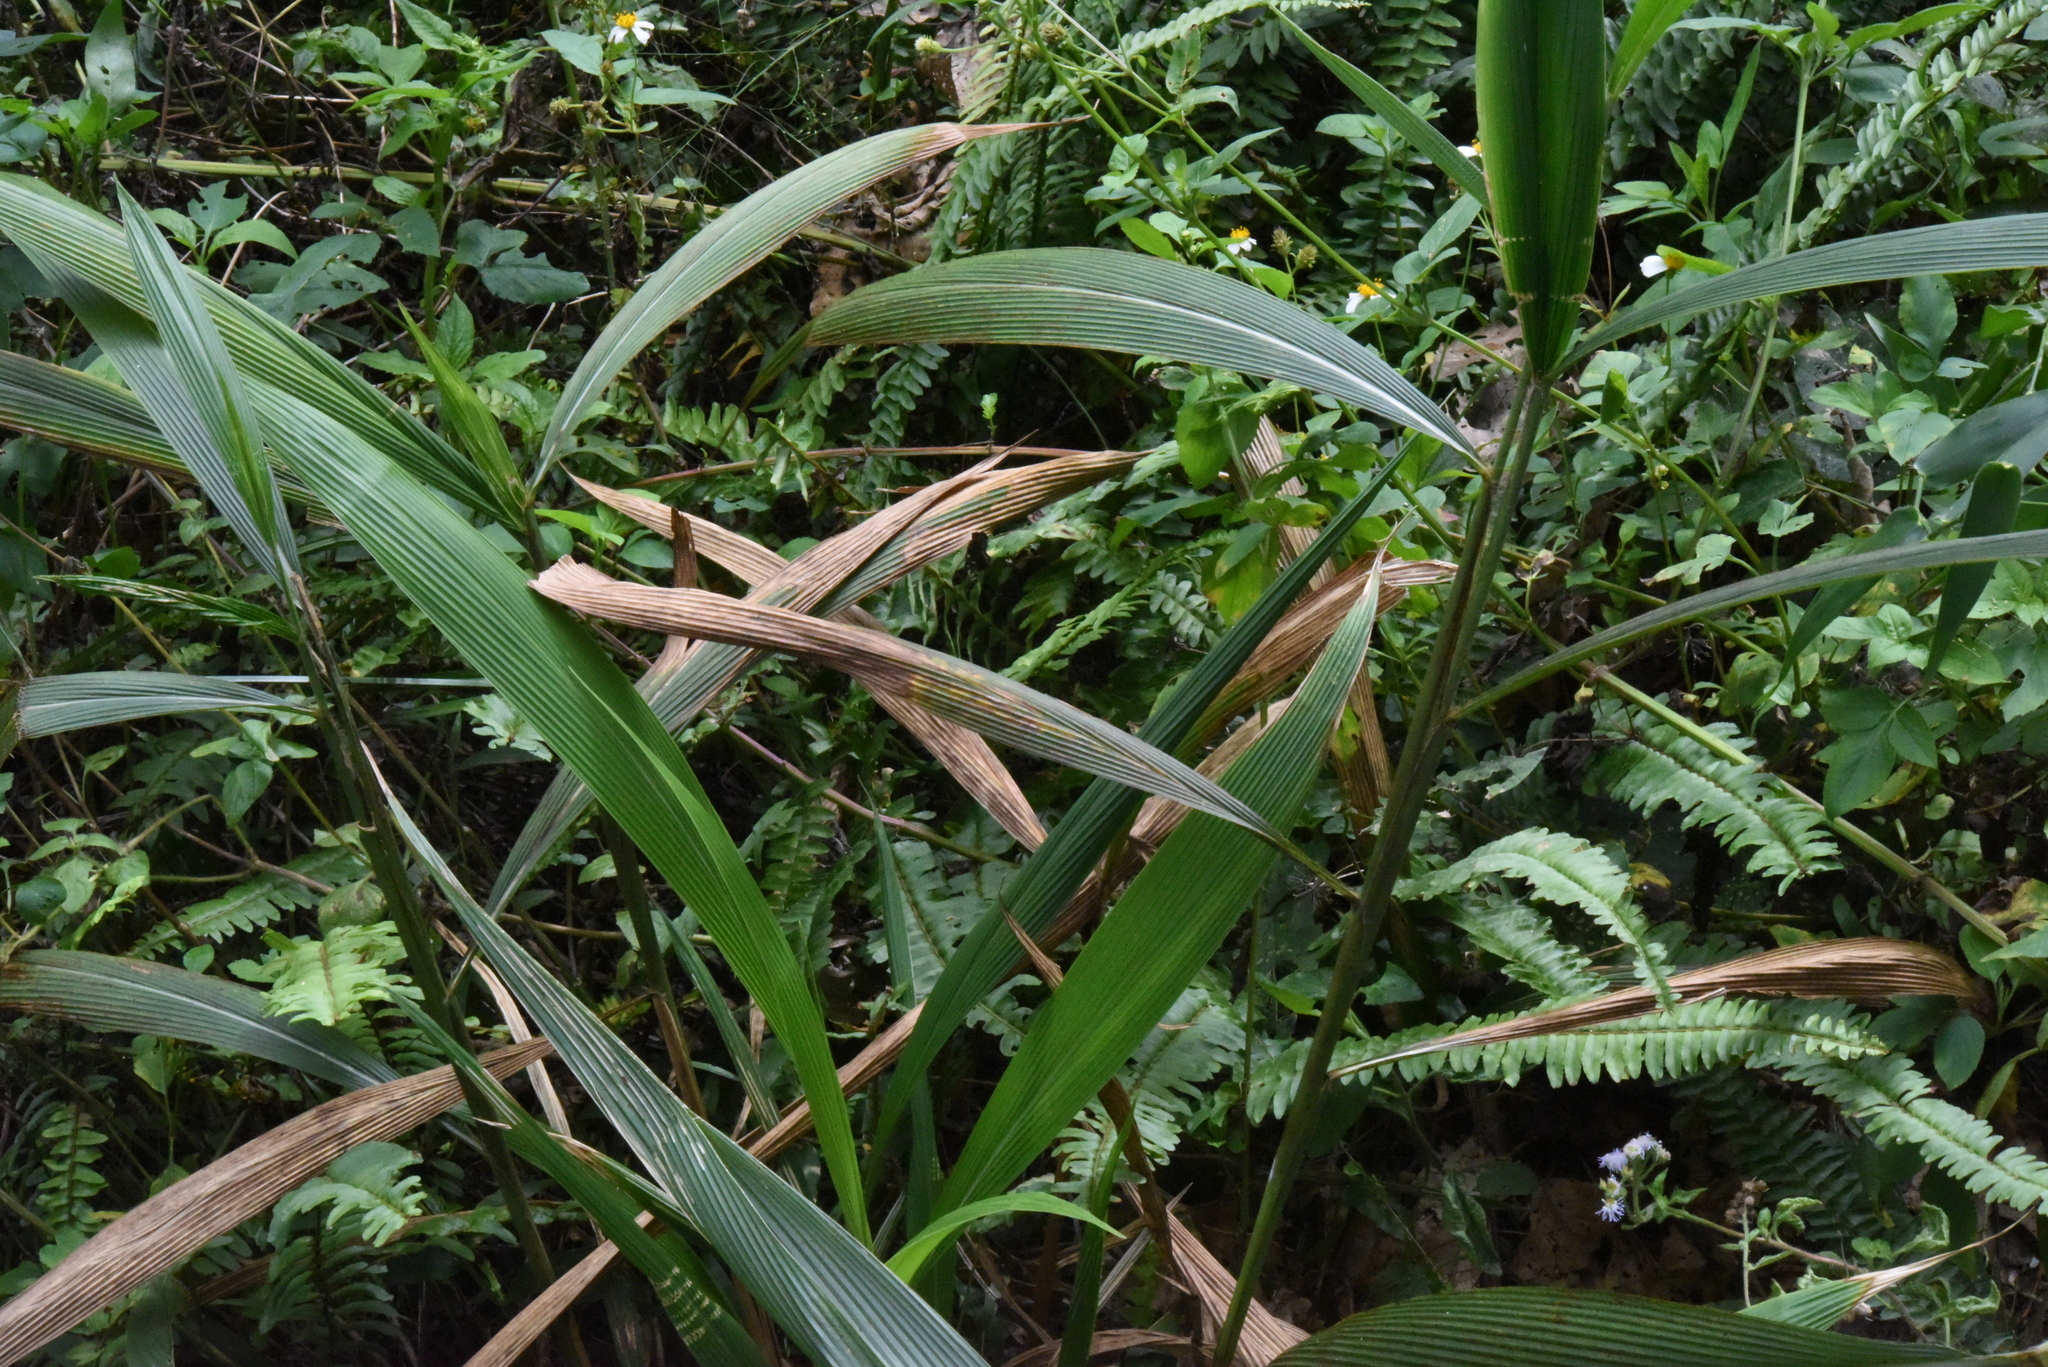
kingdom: Plantae
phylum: Tracheophyta
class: Liliopsida
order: Poales
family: Poaceae
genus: Setaria
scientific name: Setaria palmifolia
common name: Broadleaved bristlegrass
